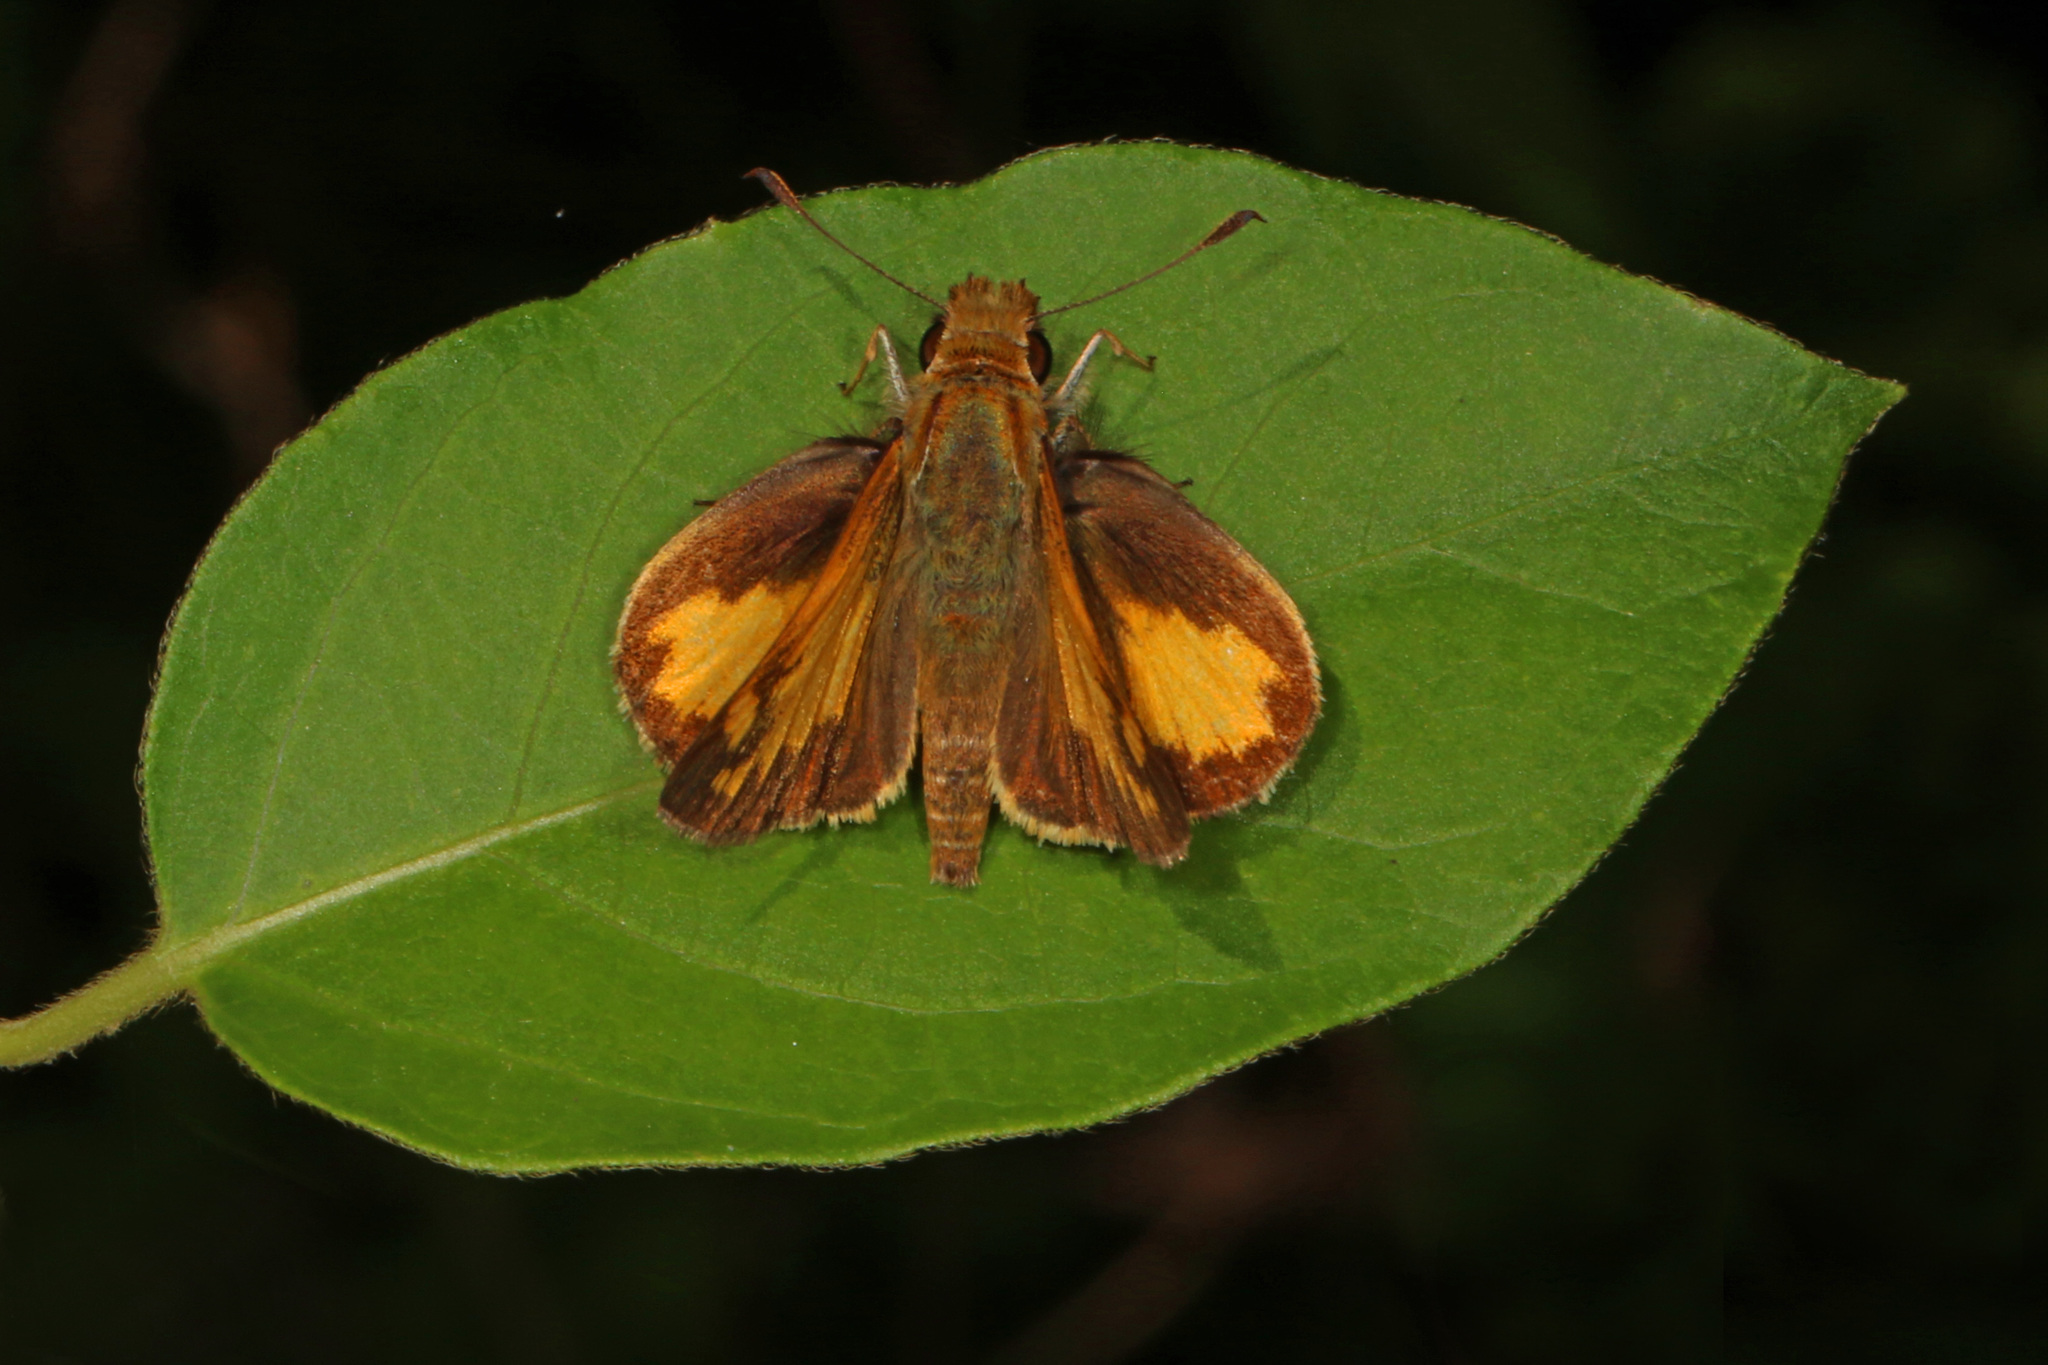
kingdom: Animalia
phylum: Arthropoda
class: Insecta
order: Lepidoptera
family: Hesperiidae
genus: Lon
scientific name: Lon zabulon
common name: Zabulon skipper
